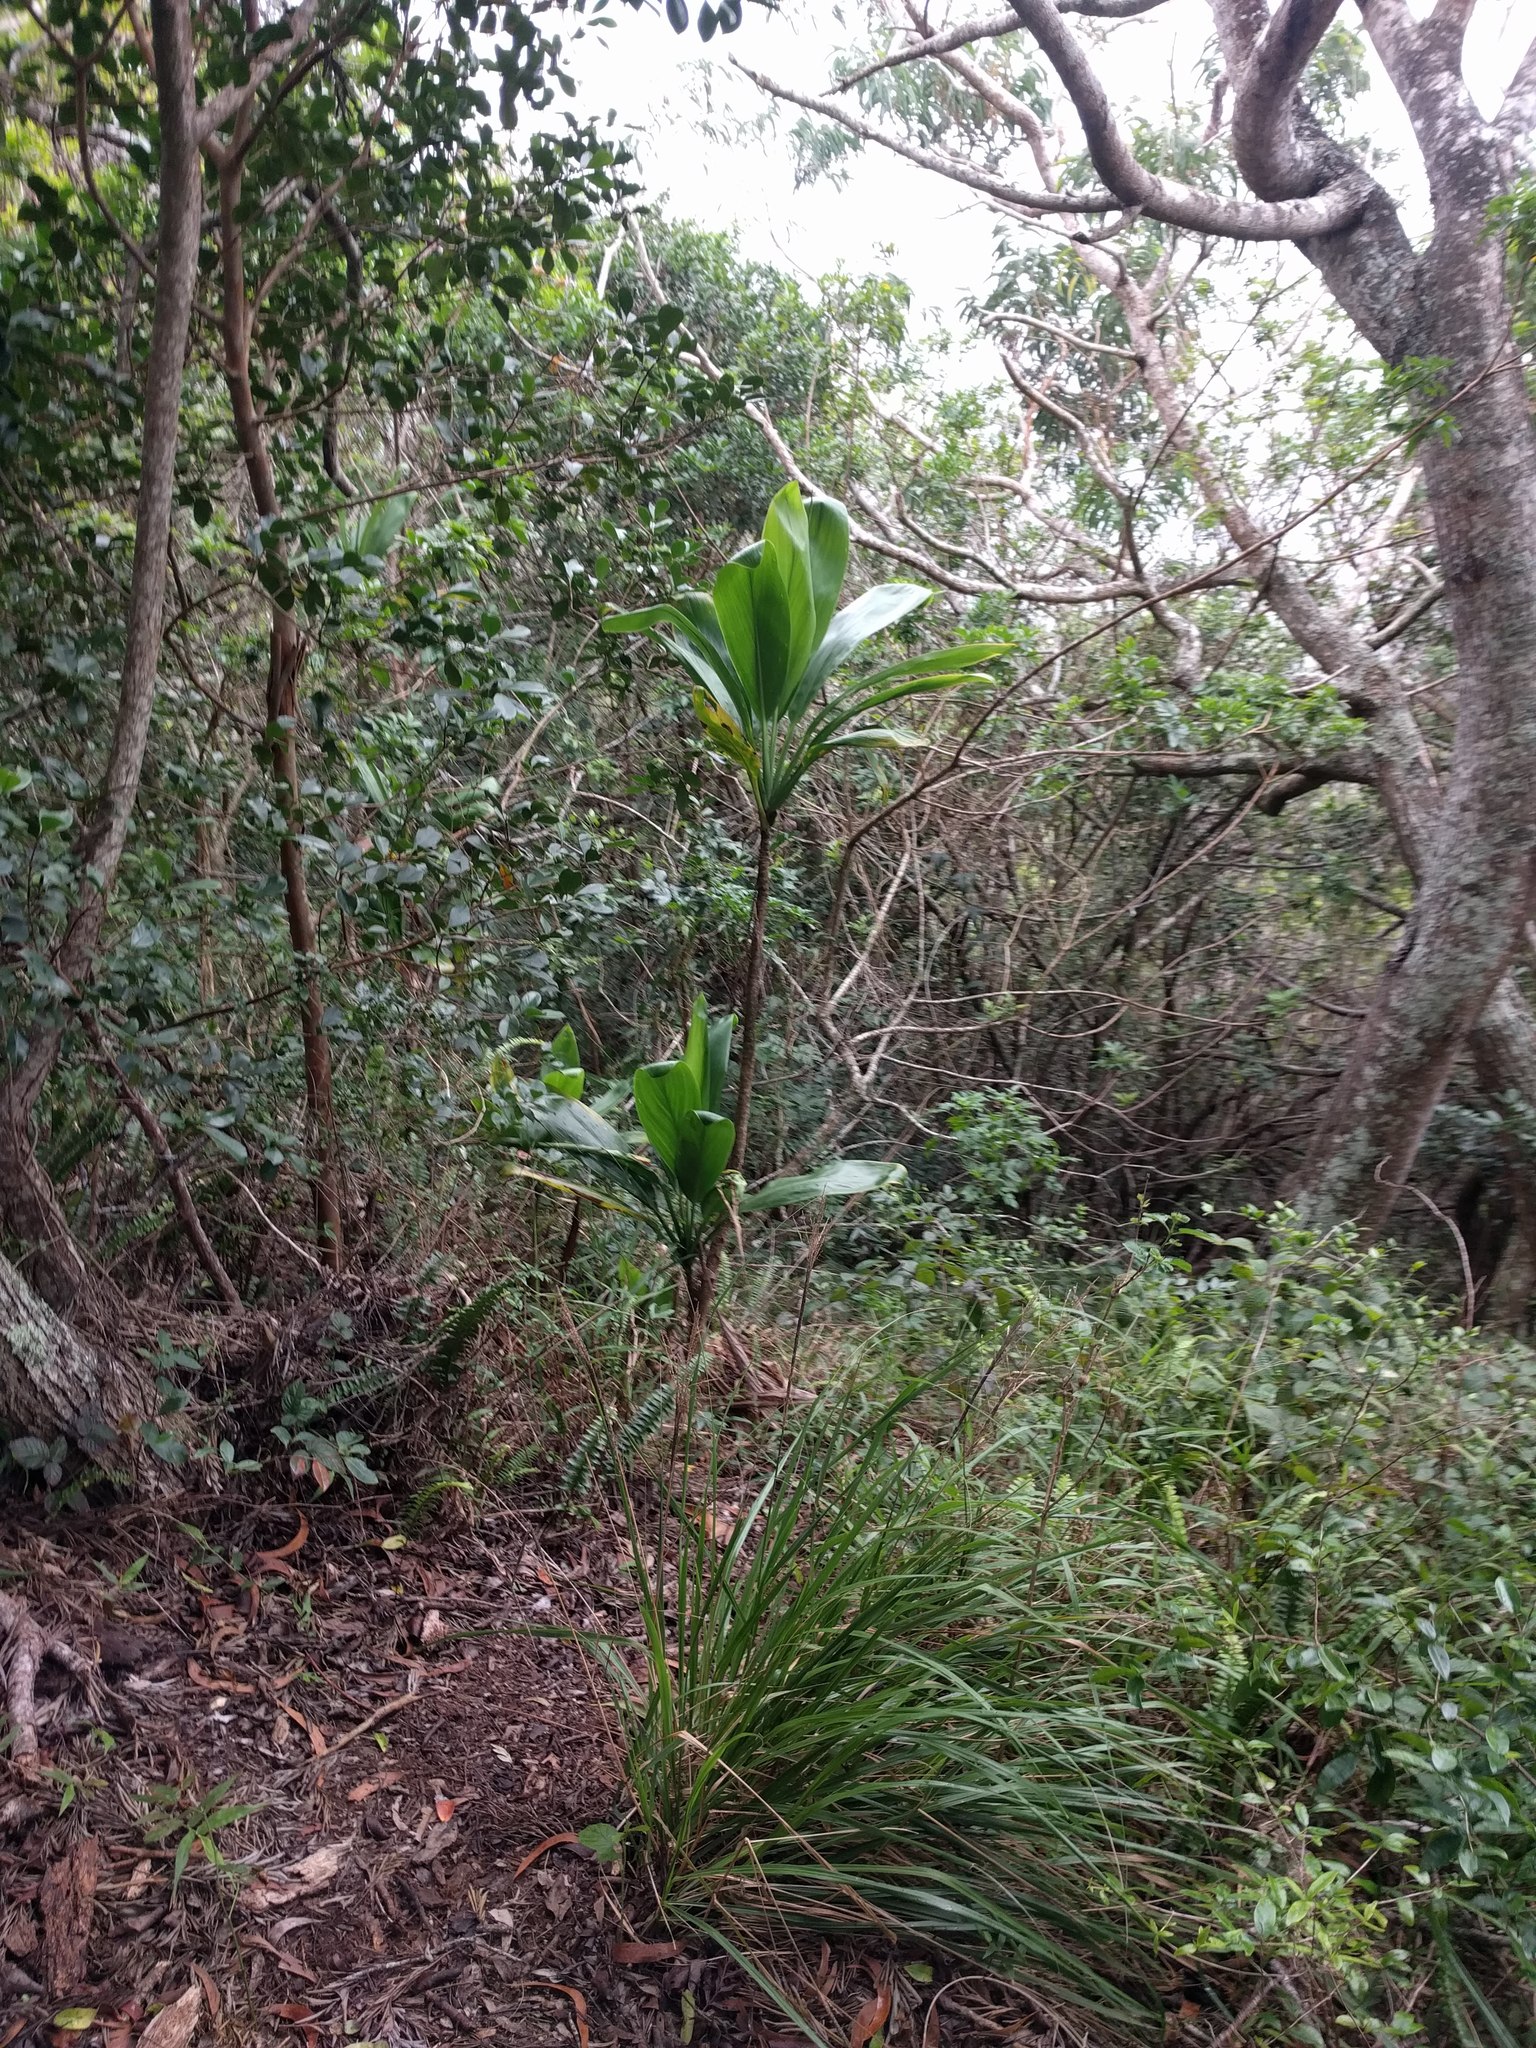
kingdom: Plantae
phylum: Tracheophyta
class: Liliopsida
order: Asparagales
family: Asparagaceae
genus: Cordyline
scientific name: Cordyline fruticosa
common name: Good-luck-plant
